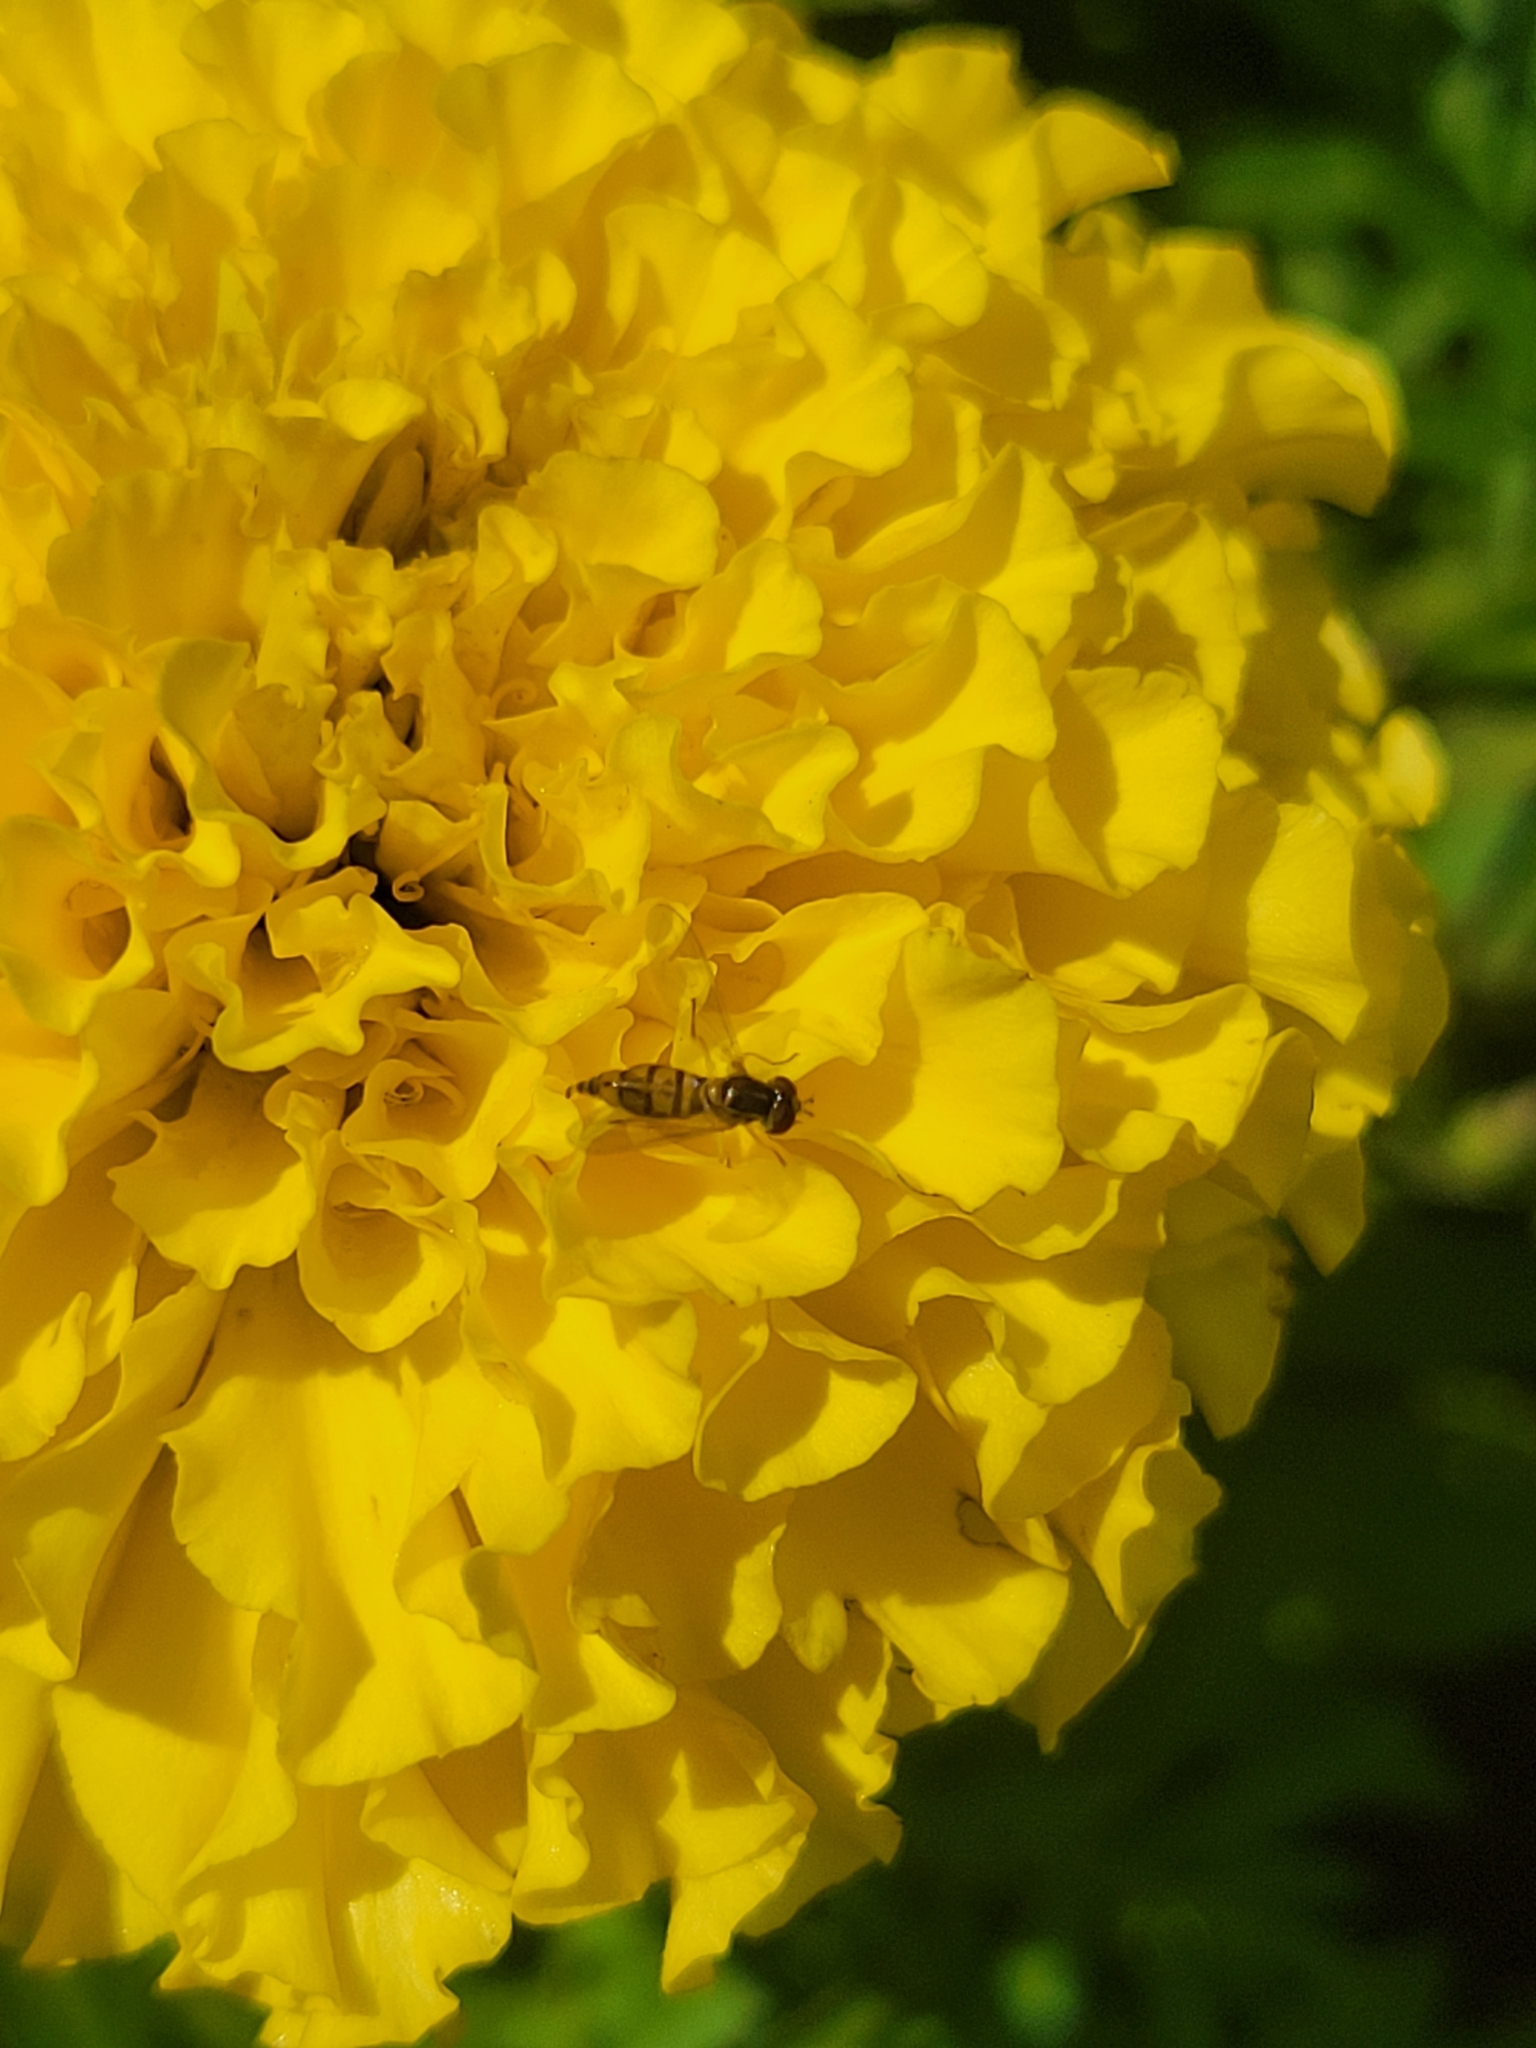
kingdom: Animalia
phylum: Arthropoda
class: Insecta
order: Diptera
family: Syrphidae
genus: Toxomerus
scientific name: Toxomerus marginatus
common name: Syrphid fly
